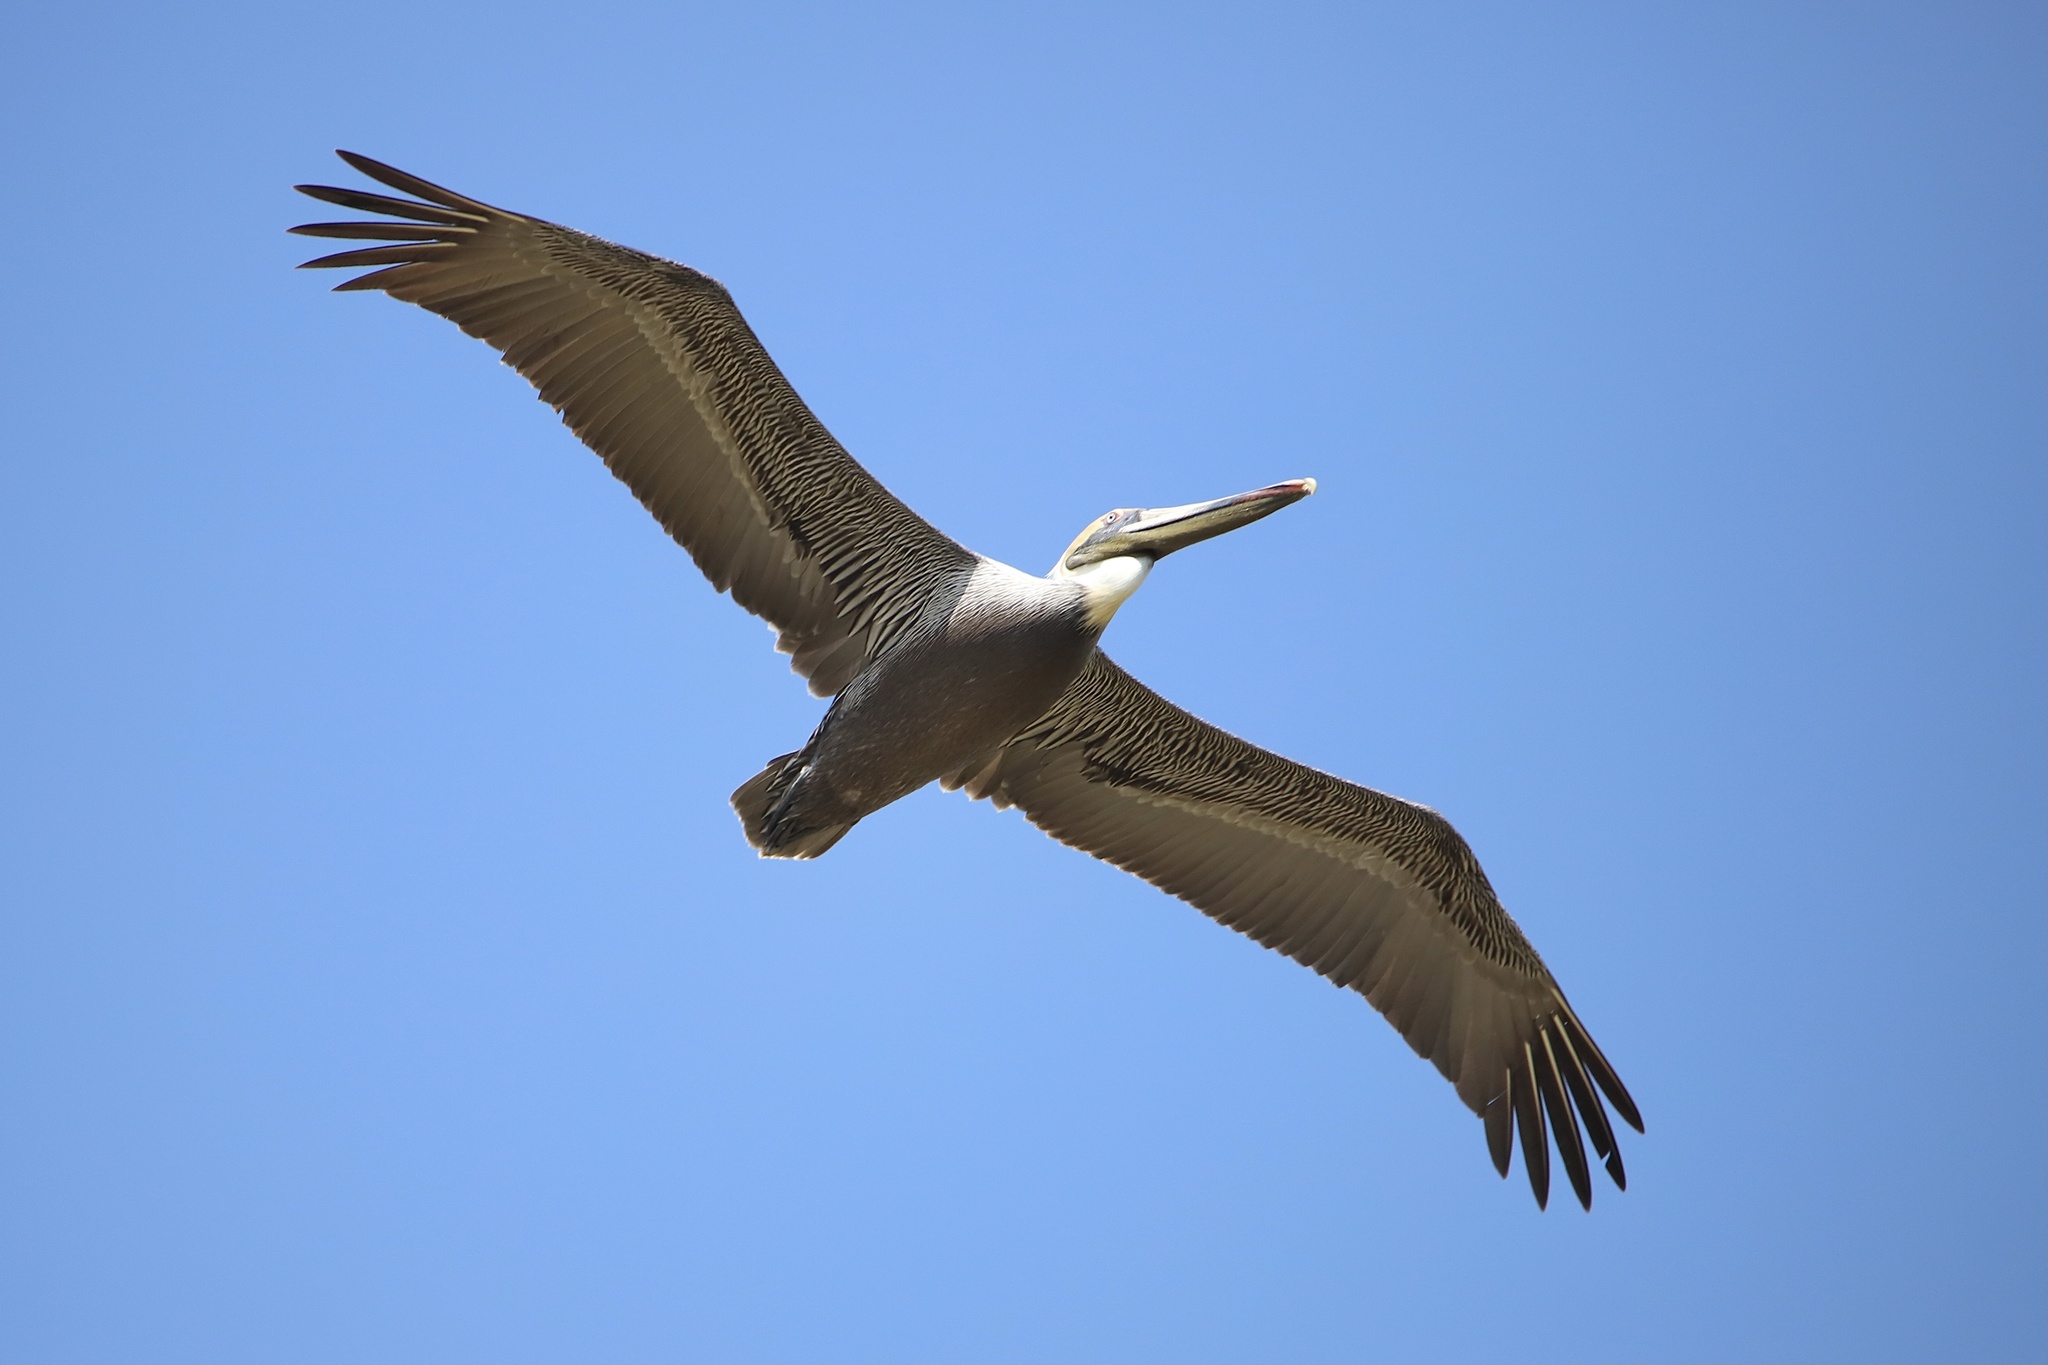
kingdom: Animalia
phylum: Chordata
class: Aves
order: Pelecaniformes
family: Pelecanidae
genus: Pelecanus
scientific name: Pelecanus occidentalis
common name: Brown pelican
